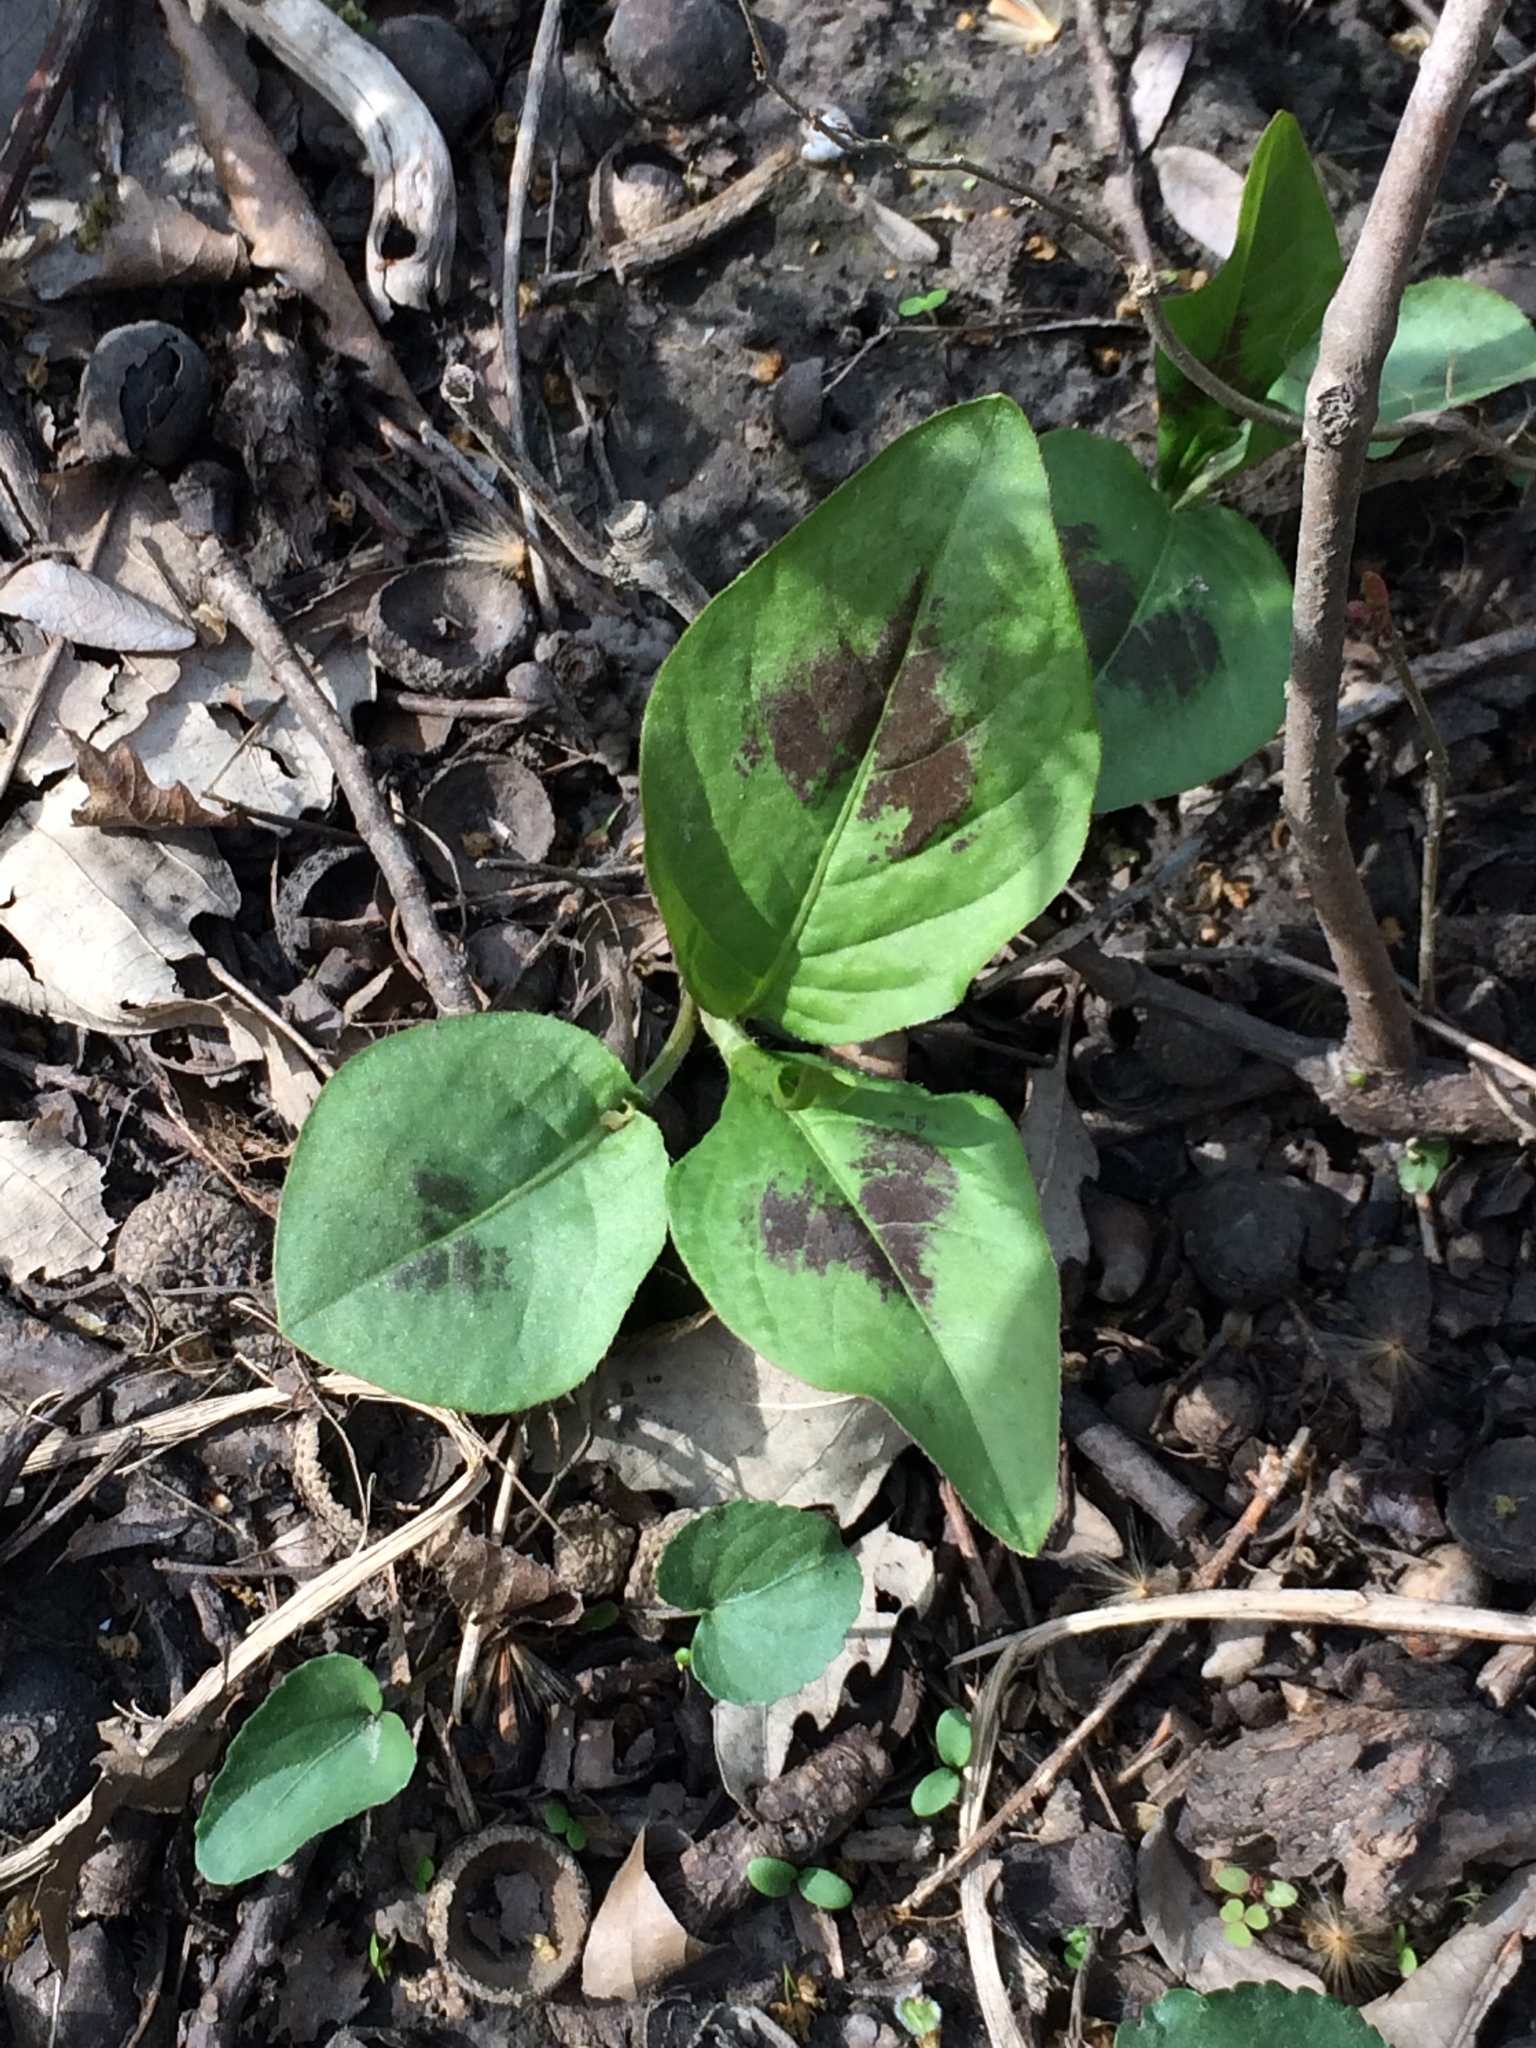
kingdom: Plantae
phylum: Tracheophyta
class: Magnoliopsida
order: Caryophyllales
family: Polygonaceae
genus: Persicaria
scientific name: Persicaria virginiana
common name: Jumpseed
